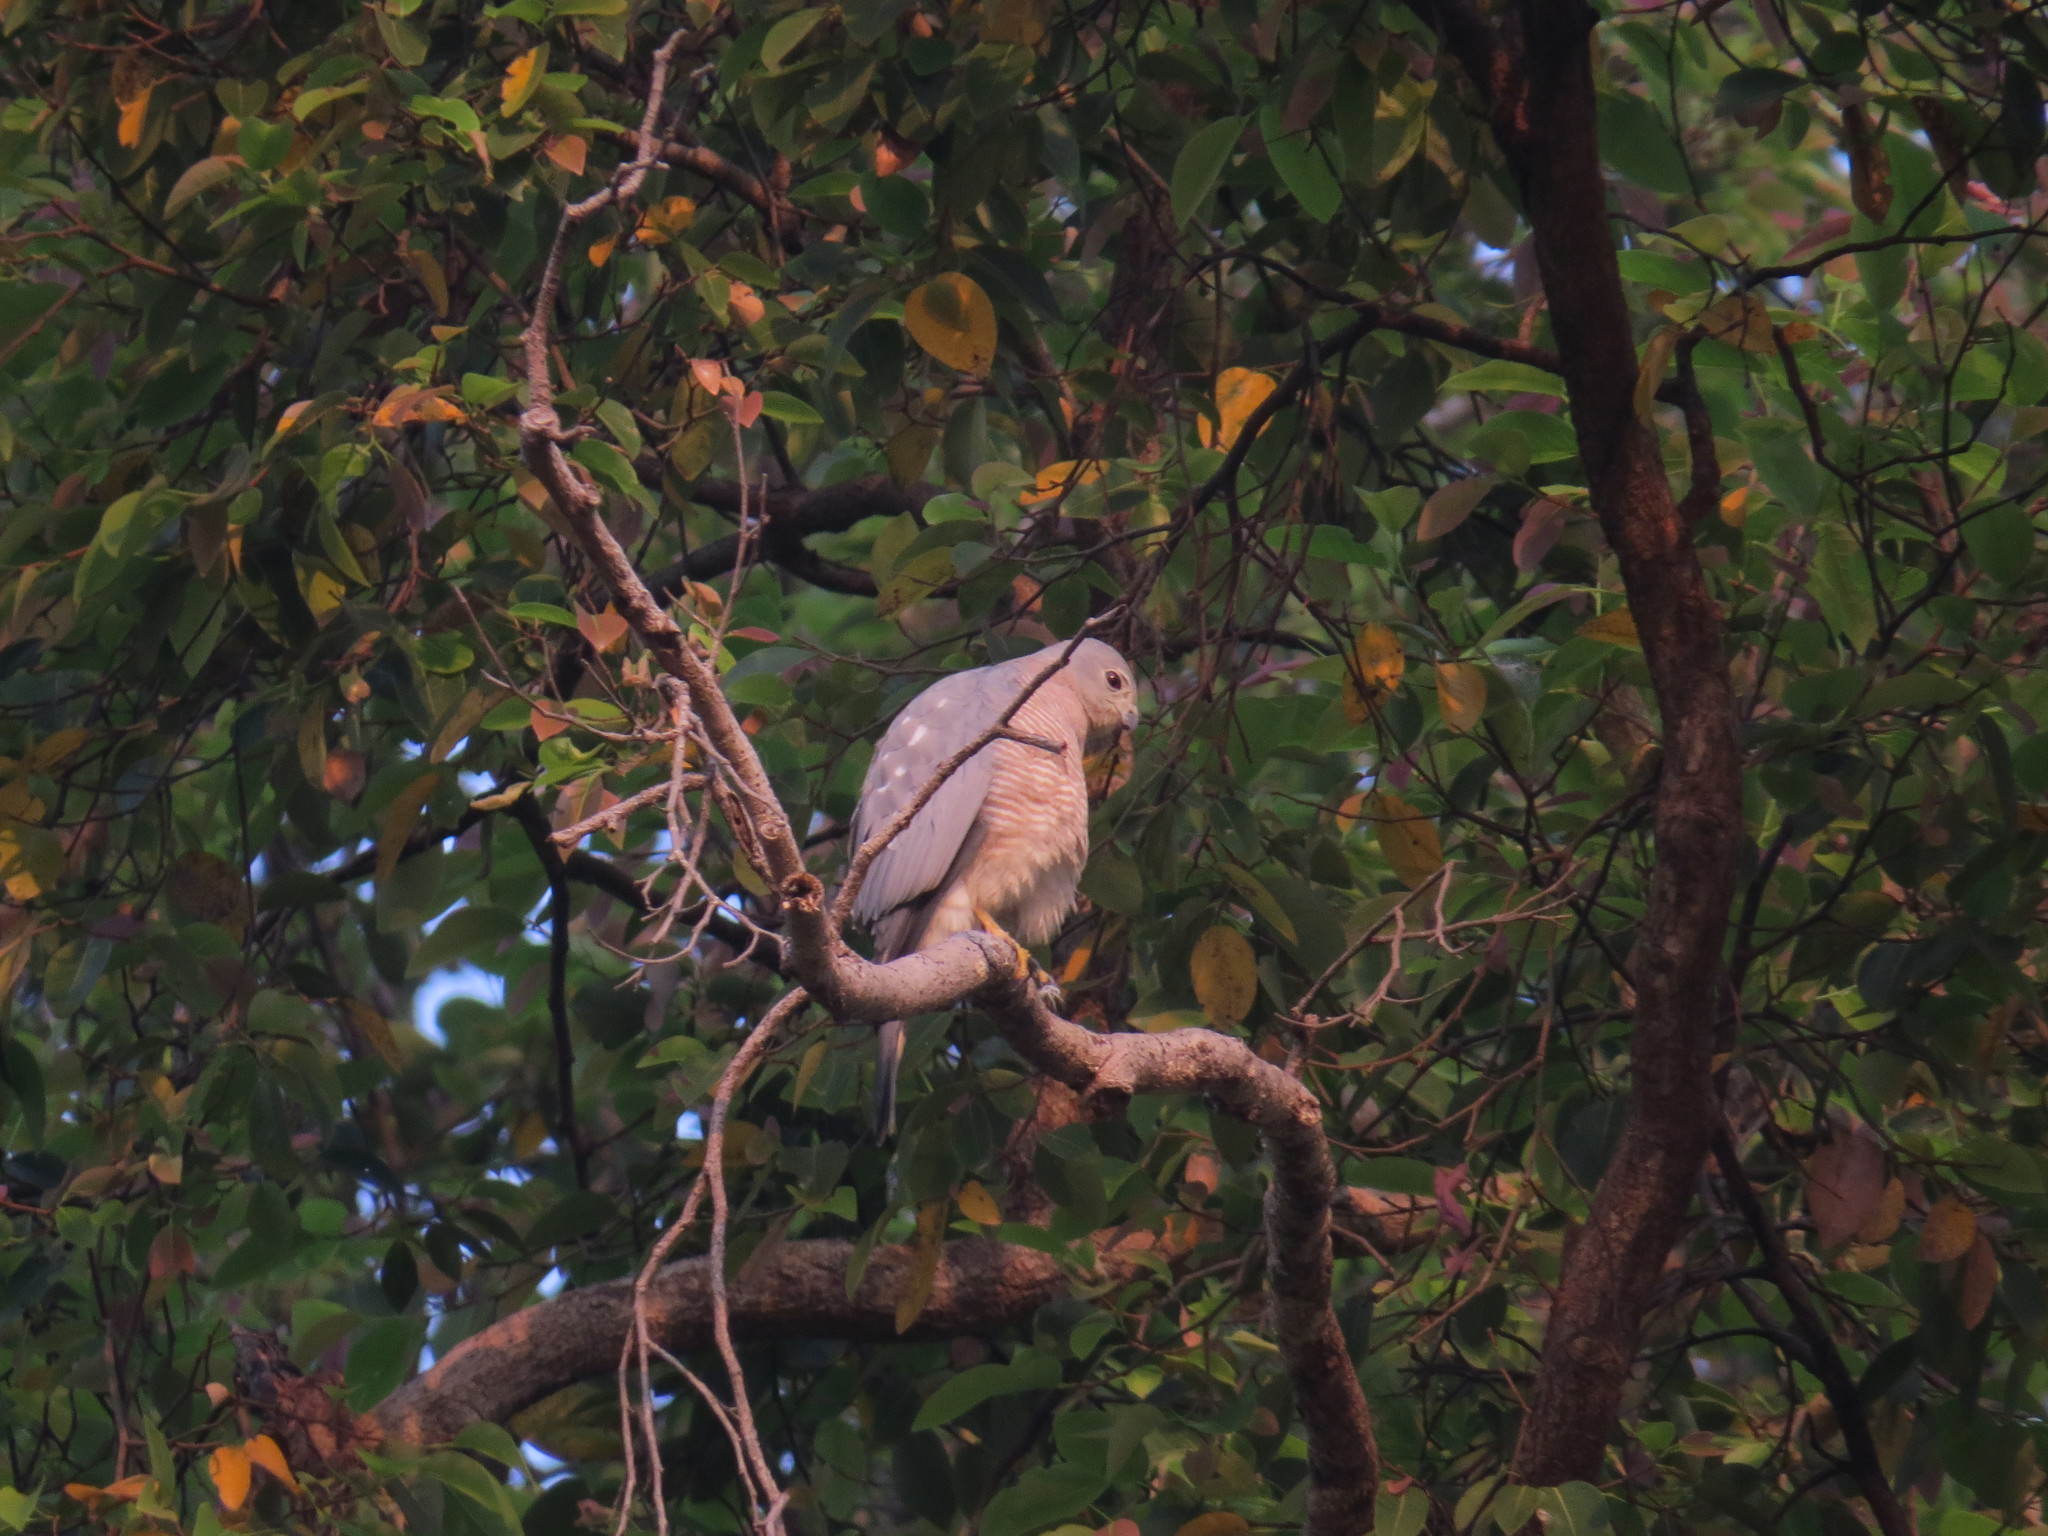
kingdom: Animalia
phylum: Chordata
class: Aves
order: Accipitriformes
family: Accipitridae
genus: Accipiter
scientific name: Accipiter badius
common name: Shikra
